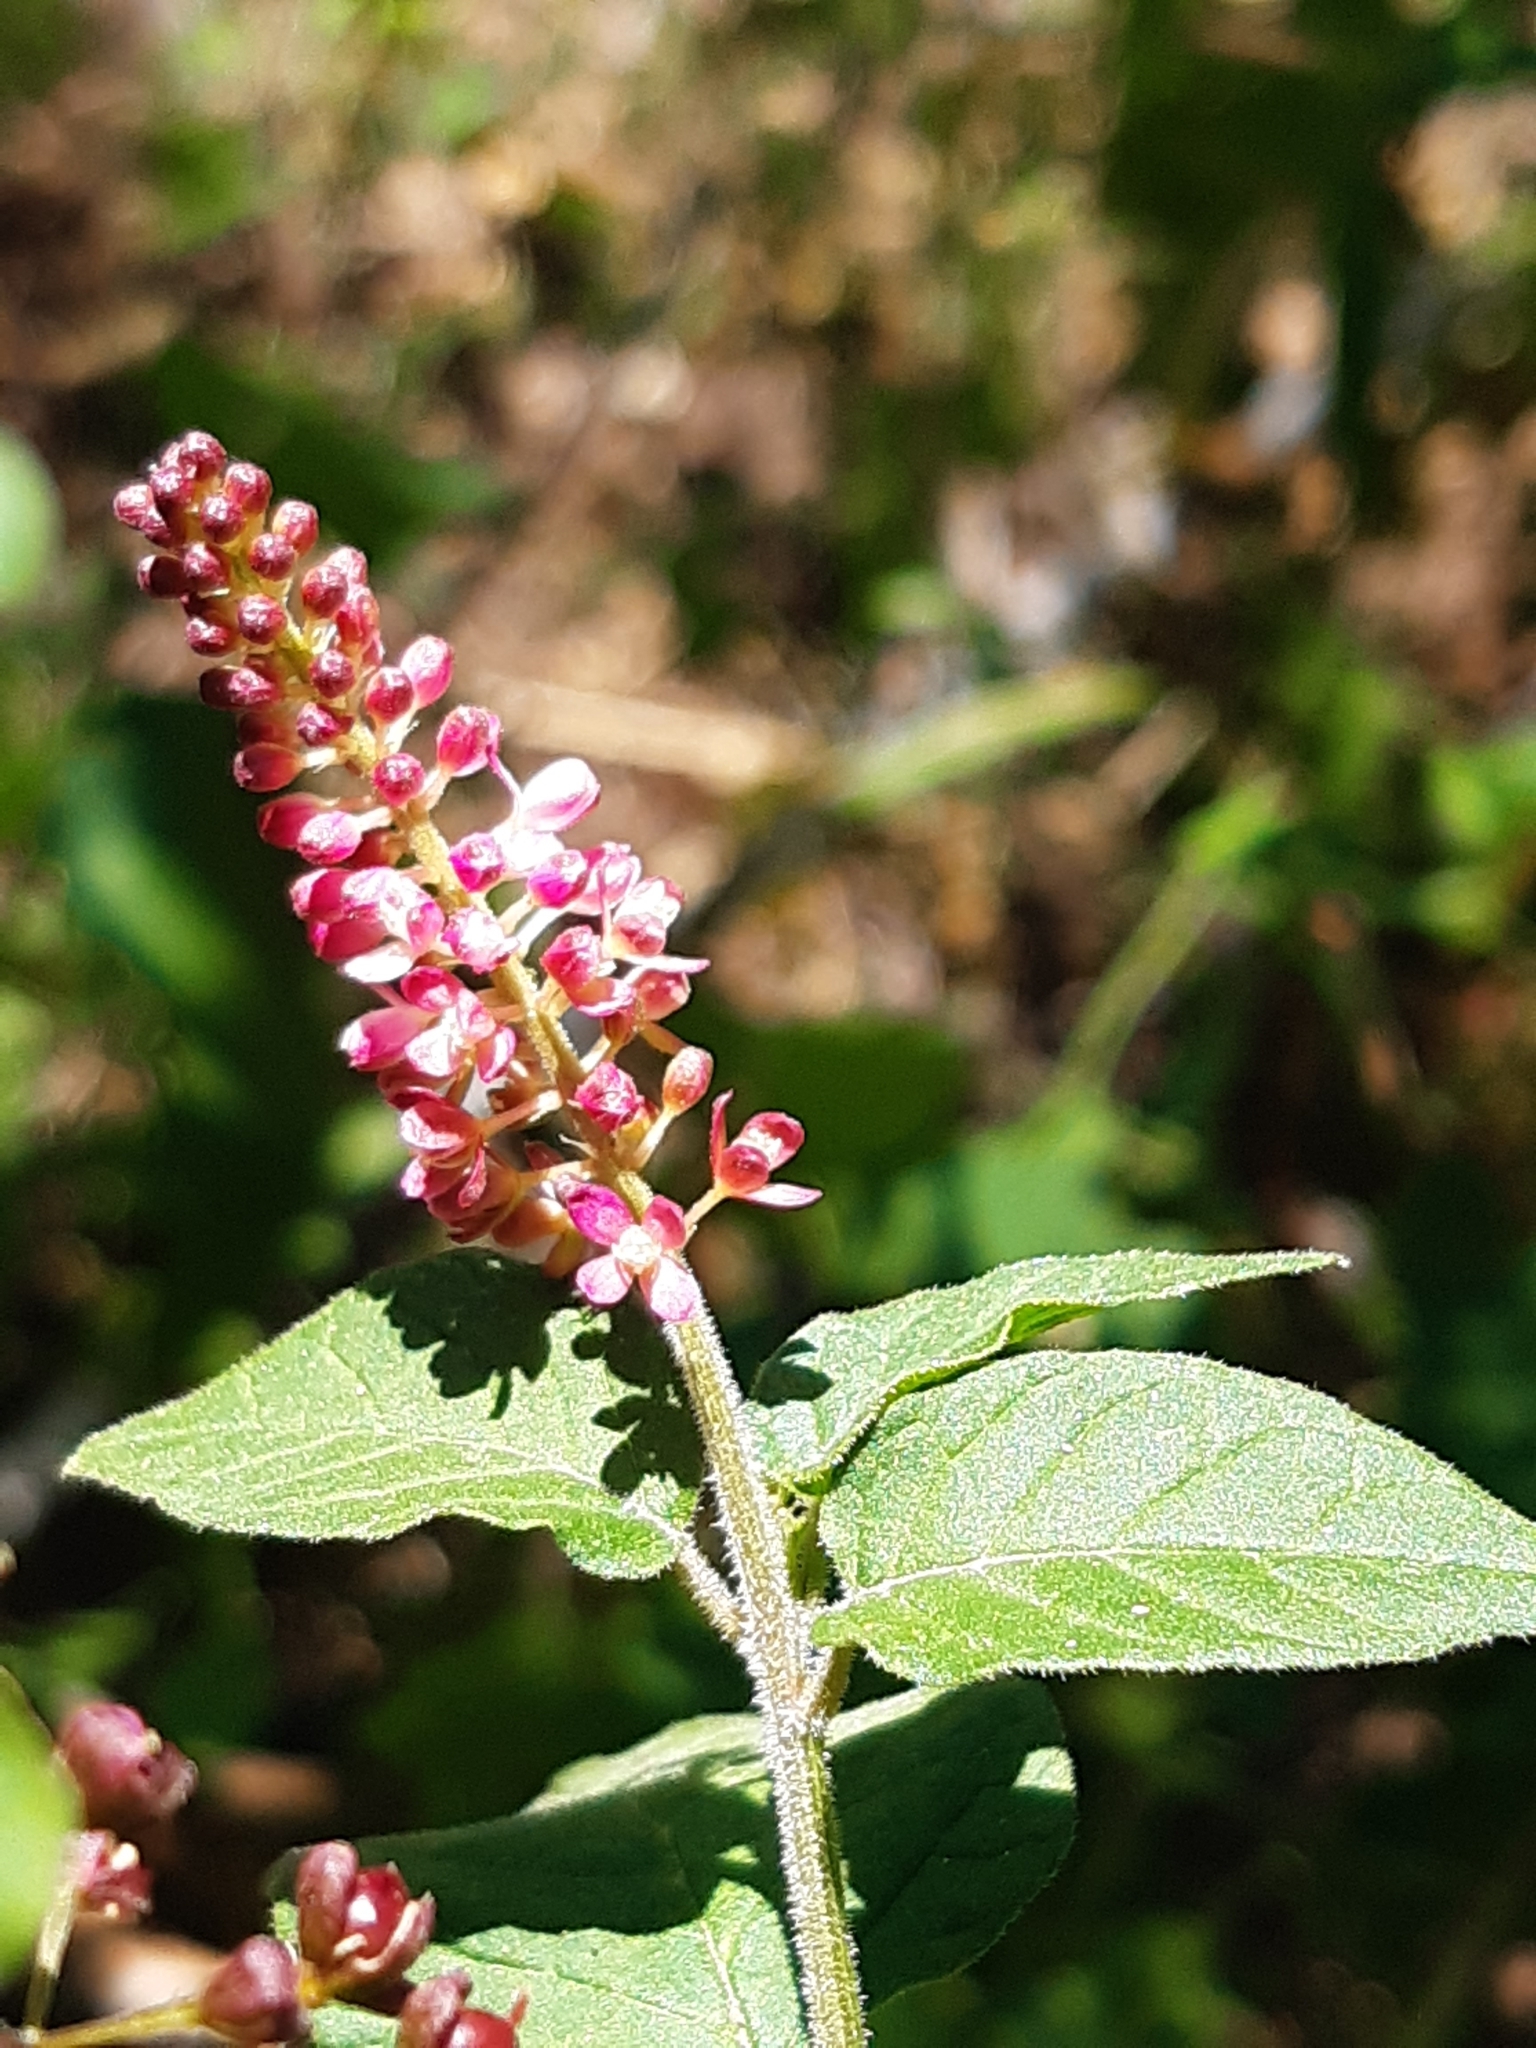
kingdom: Plantae
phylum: Tracheophyta
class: Magnoliopsida
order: Caryophyllales
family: Phytolaccaceae
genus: Rivina
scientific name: Rivina humilis
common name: Rougeplant
